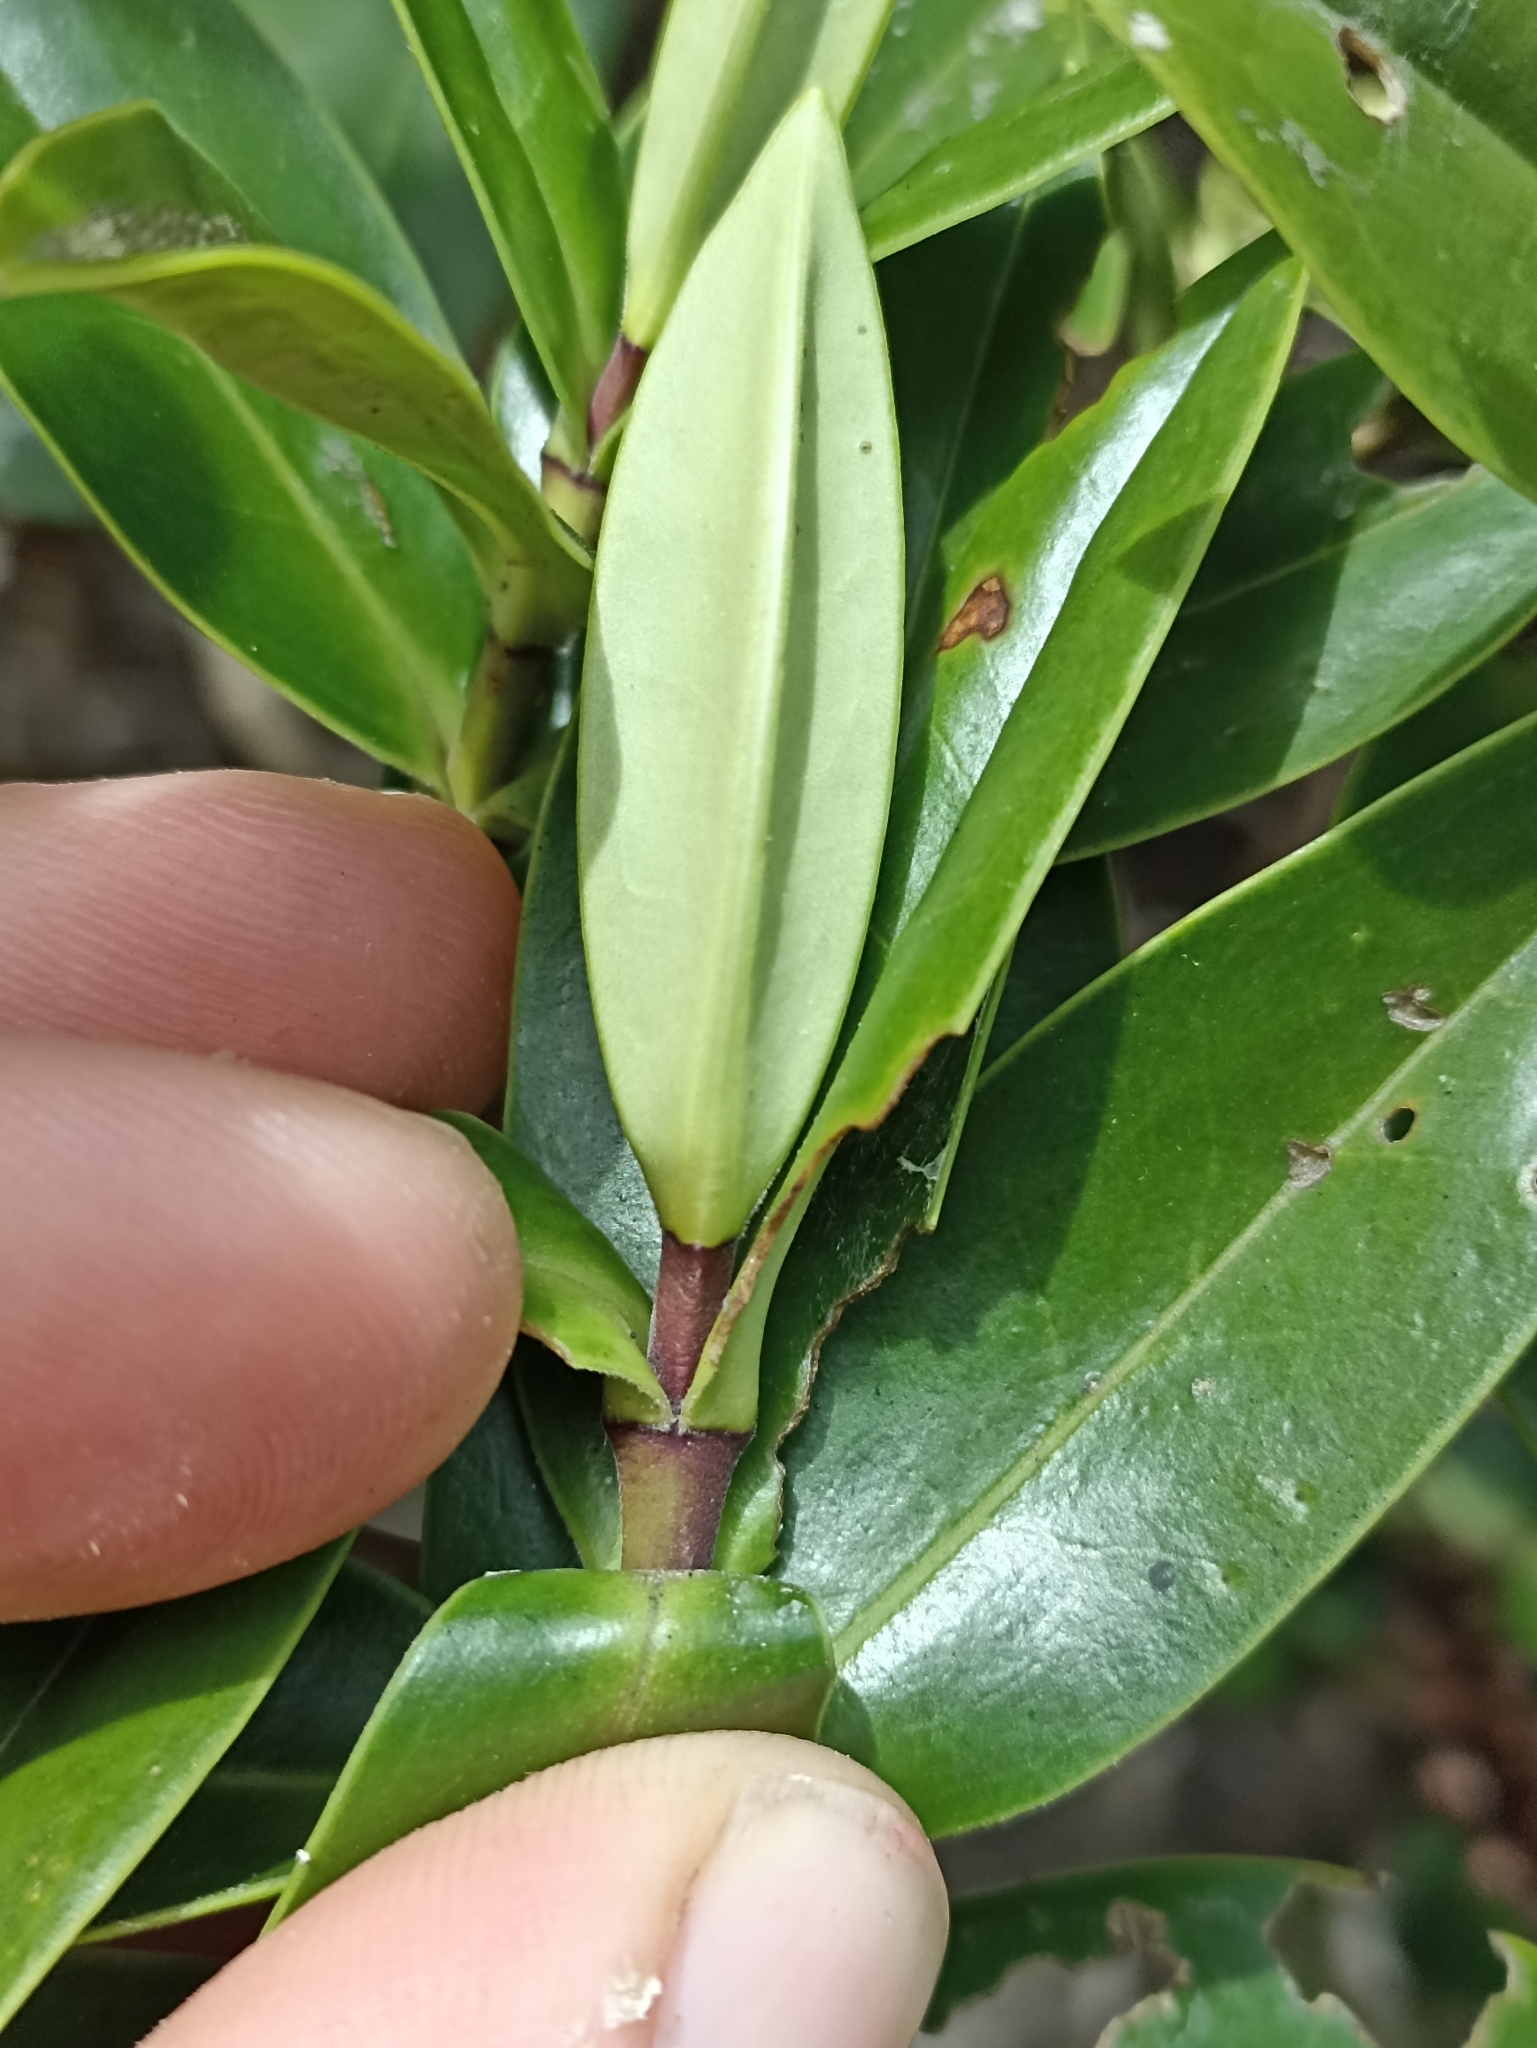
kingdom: Plantae
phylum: Tracheophyta
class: Magnoliopsida
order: Lamiales
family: Plantaginaceae
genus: Veronica
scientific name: Veronica bollonsii
